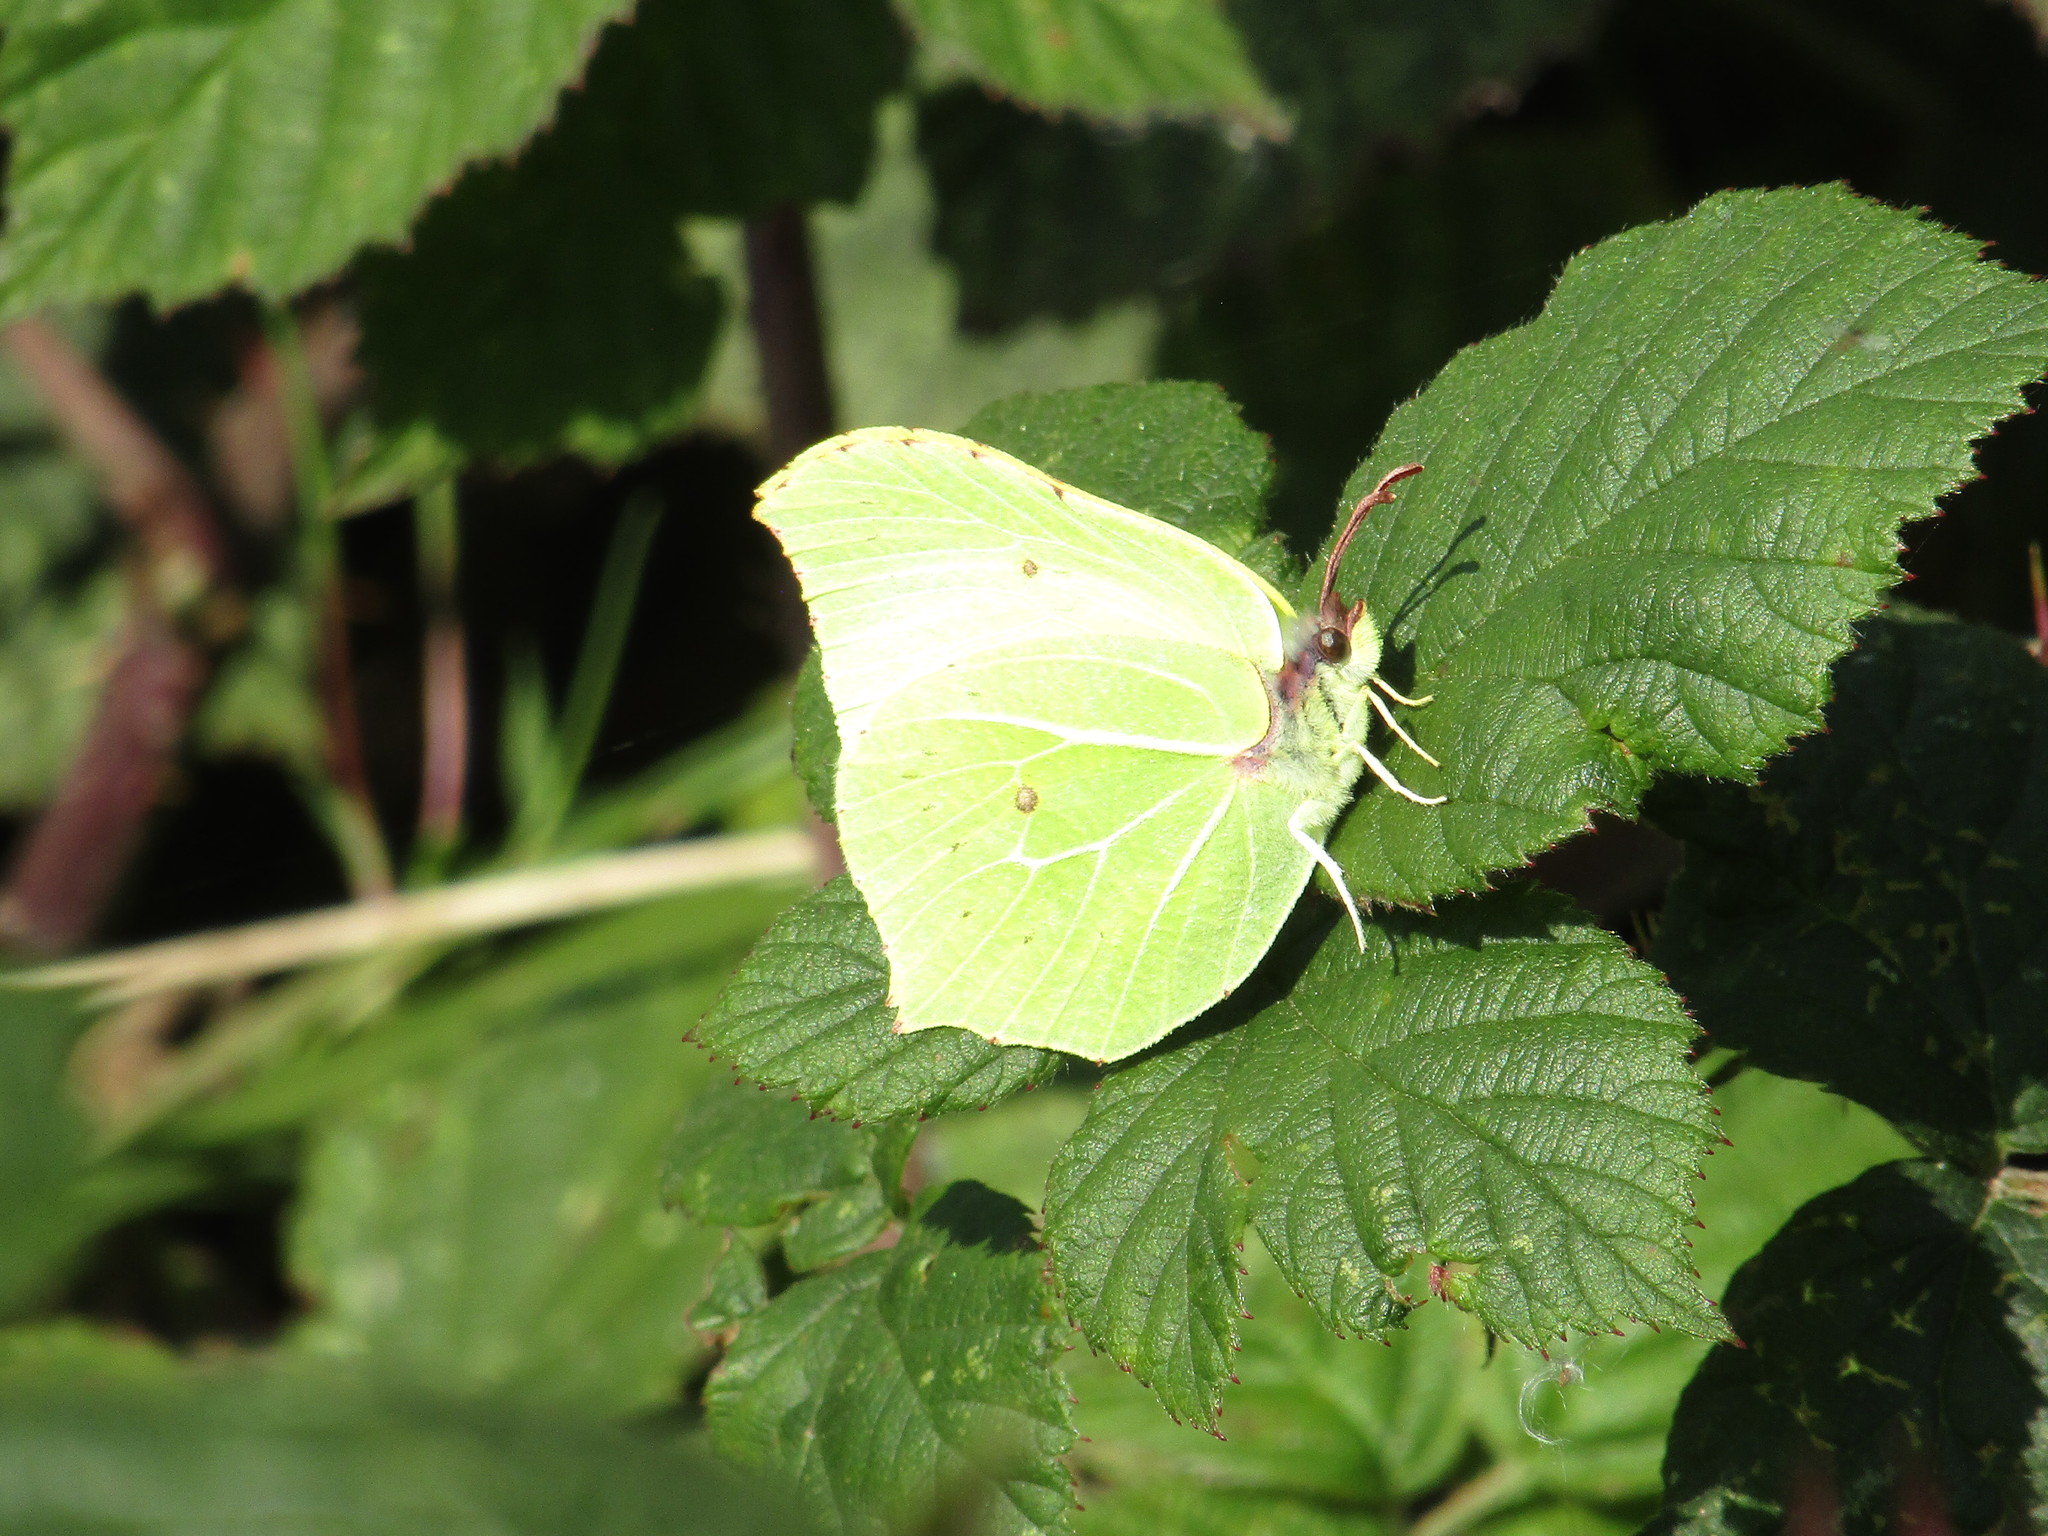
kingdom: Animalia
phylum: Arthropoda
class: Insecta
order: Lepidoptera
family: Pieridae
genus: Gonepteryx
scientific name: Gonepteryx rhamni
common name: Brimstone
